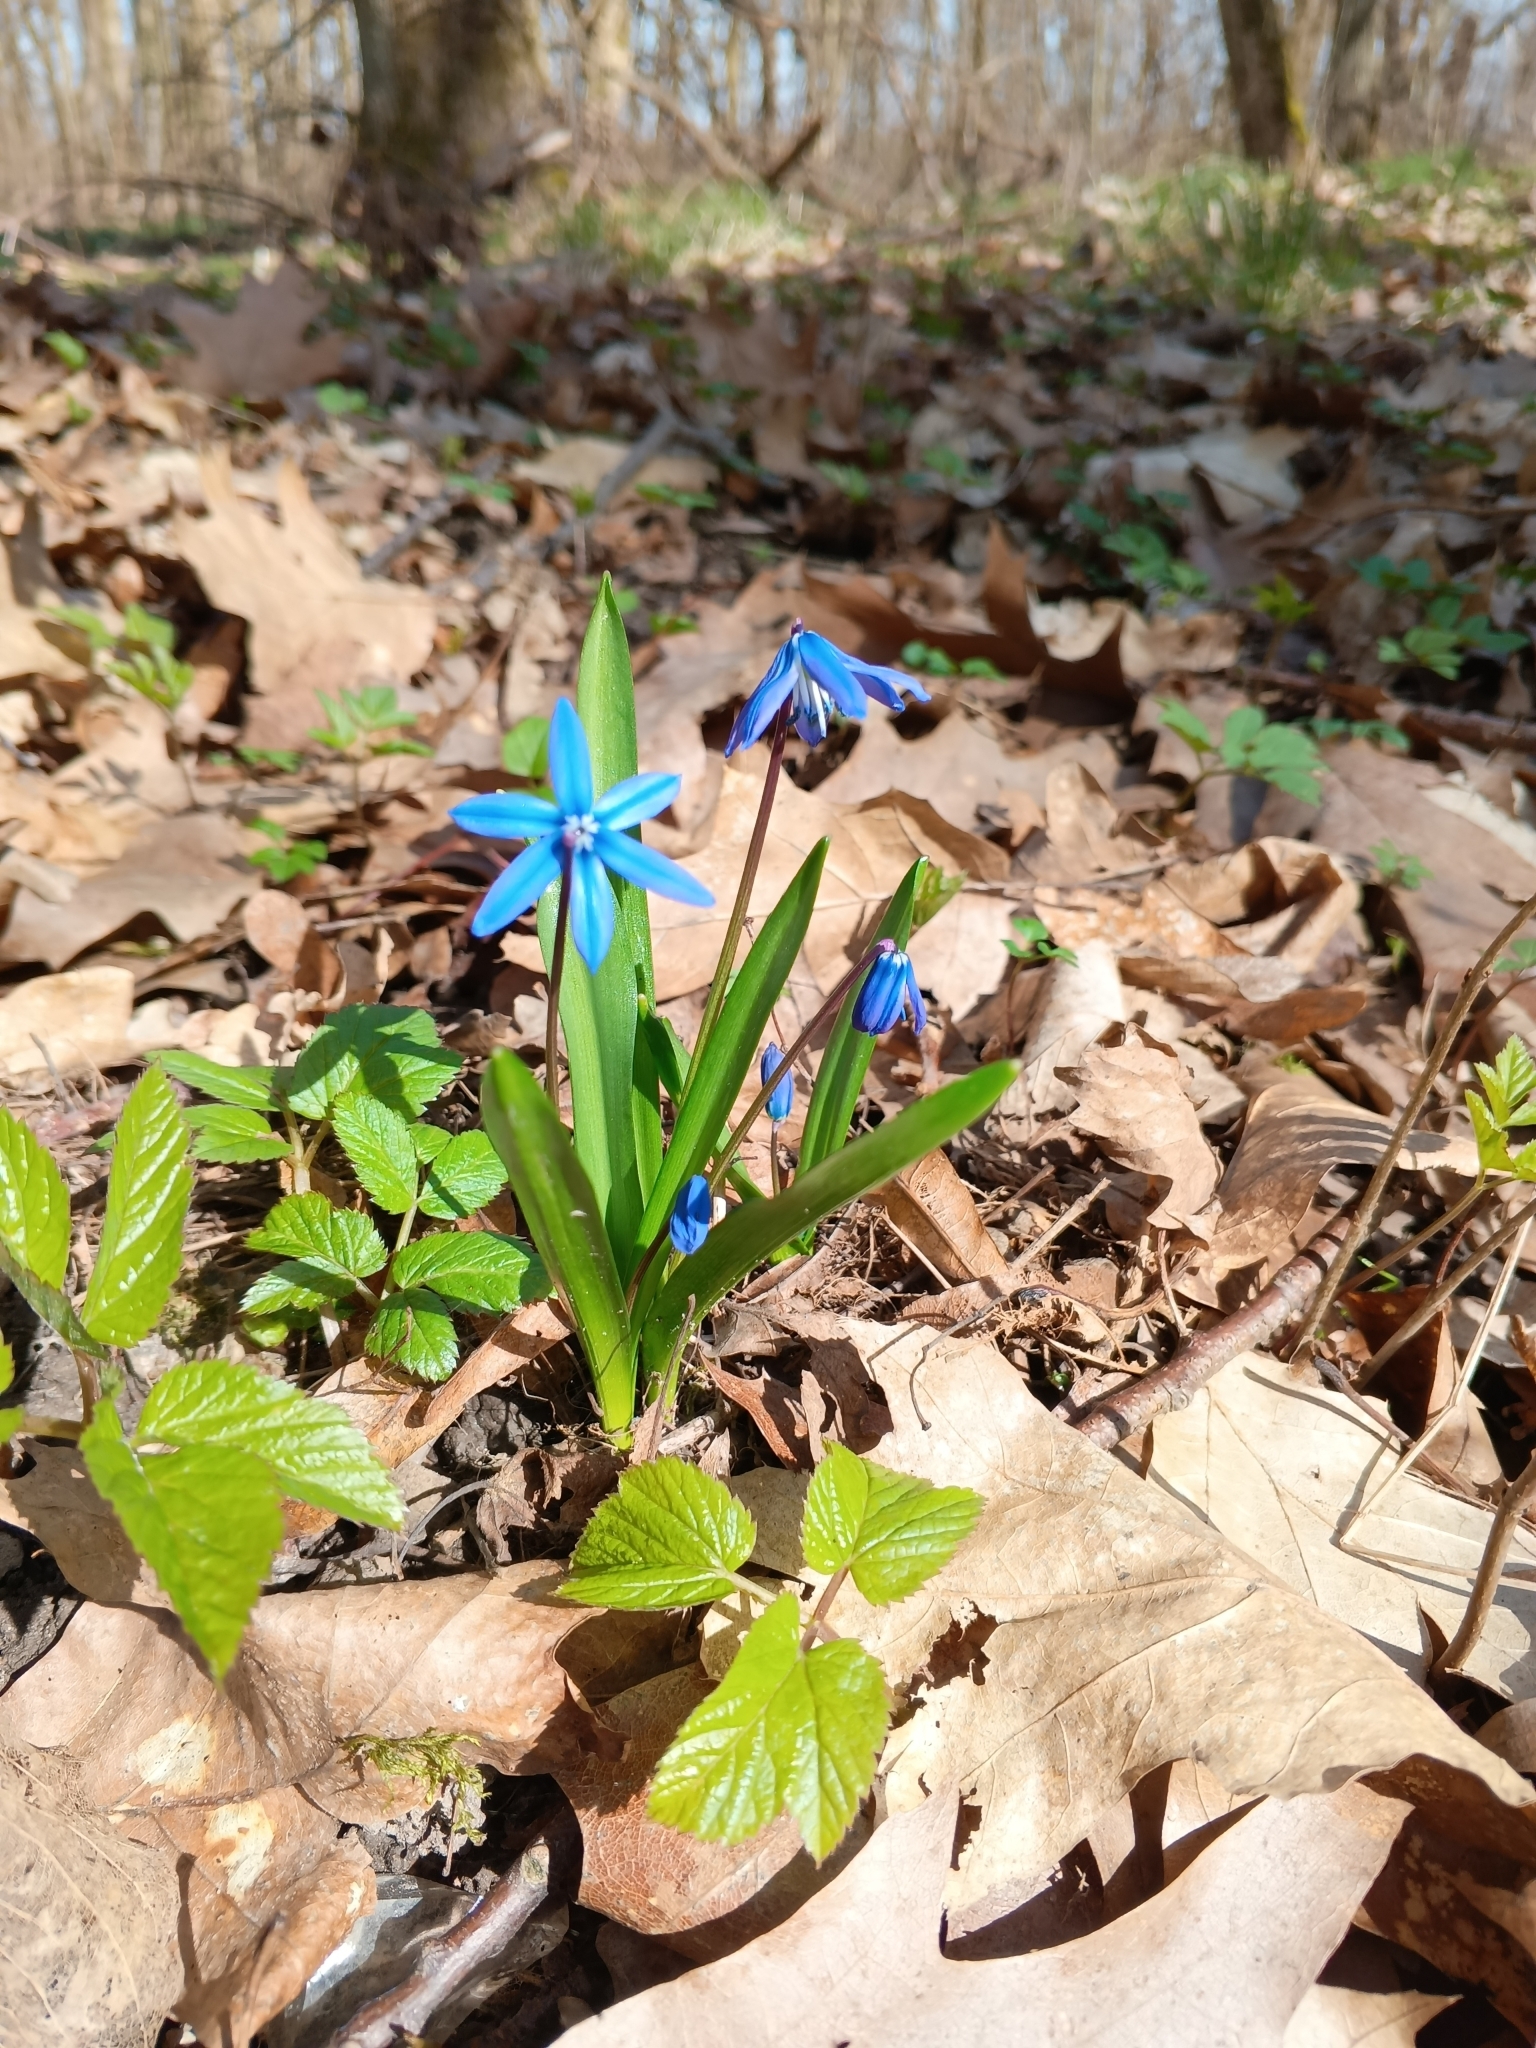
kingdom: Plantae
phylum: Tracheophyta
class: Liliopsida
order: Asparagales
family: Asparagaceae
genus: Scilla
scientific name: Scilla siberica
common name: Siberian squill
